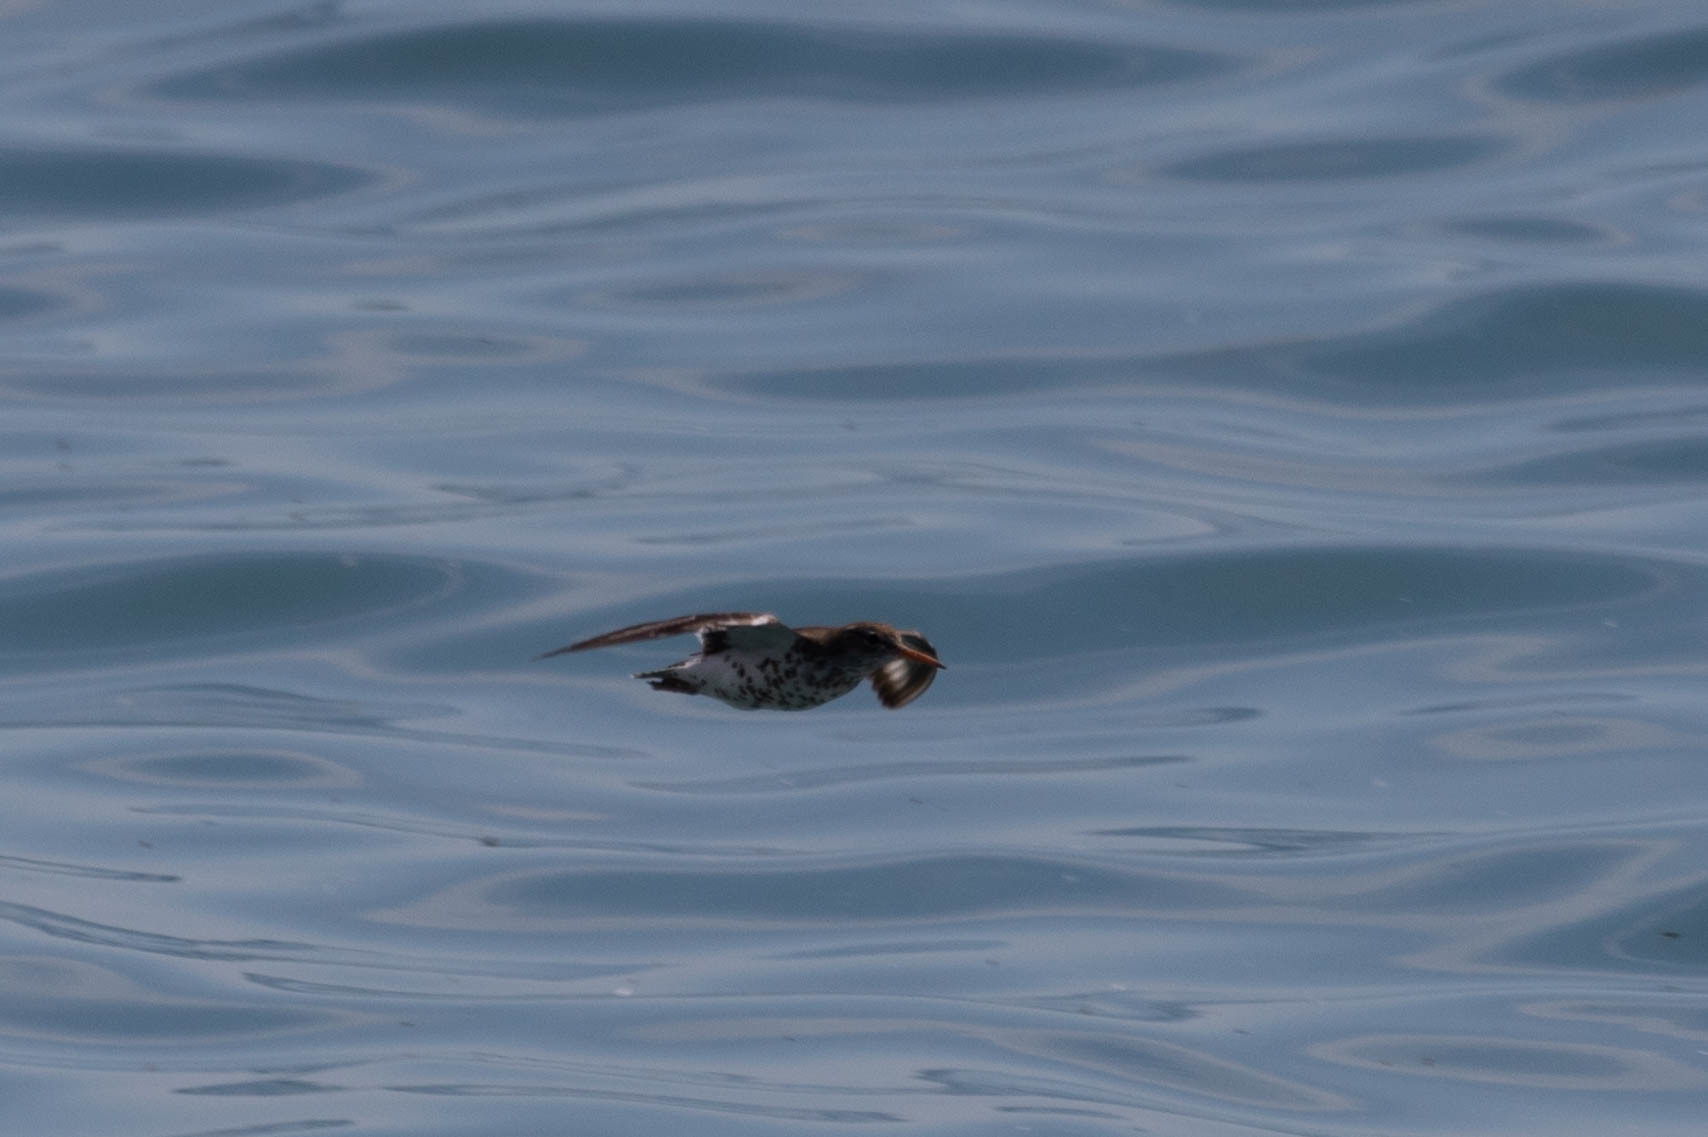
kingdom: Animalia
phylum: Chordata
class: Aves
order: Charadriiformes
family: Scolopacidae
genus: Actitis
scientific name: Actitis macularius
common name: Spotted sandpiper
